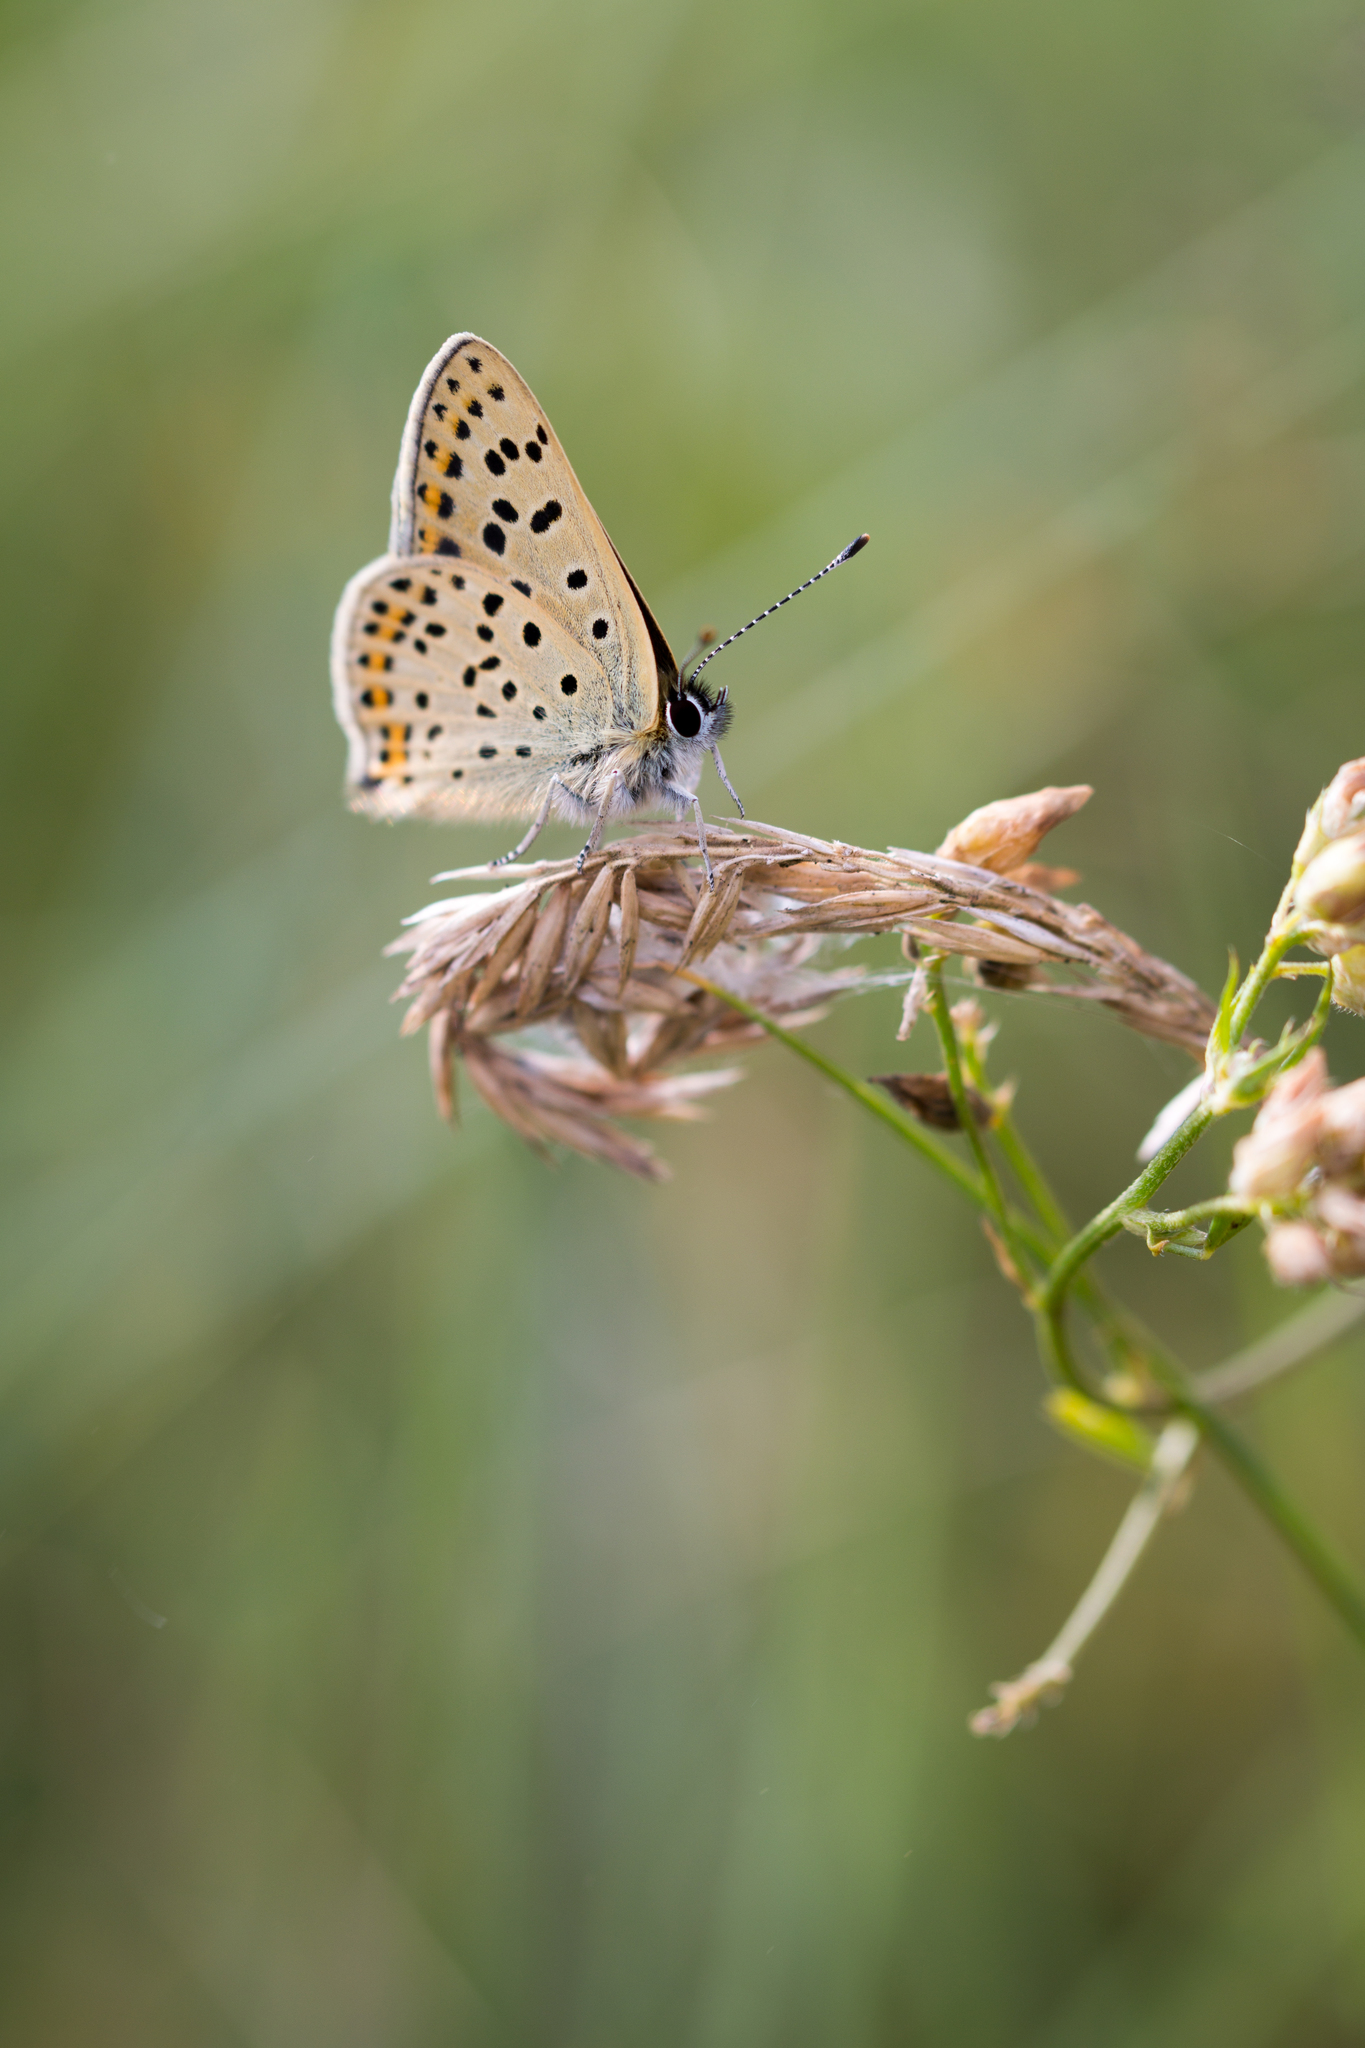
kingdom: Animalia
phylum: Arthropoda
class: Insecta
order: Lepidoptera
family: Lycaenidae
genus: Loweia
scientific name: Loweia tityrus
